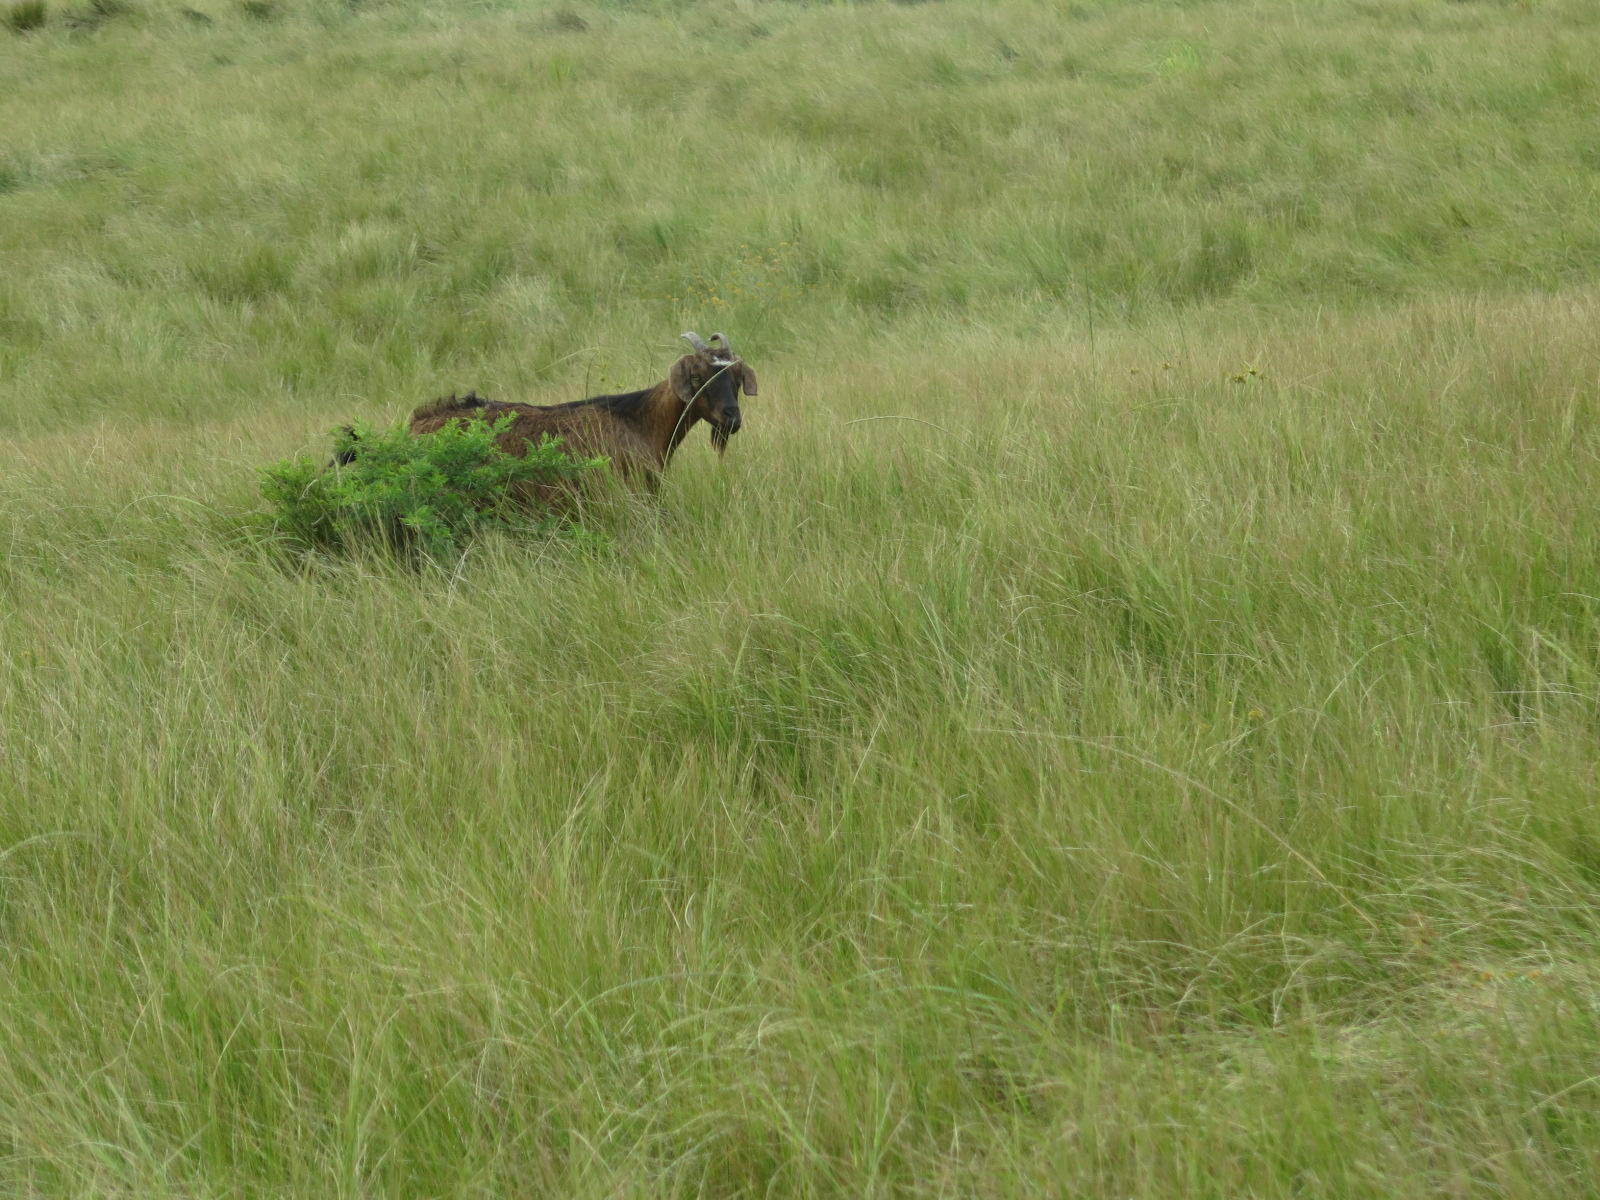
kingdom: Animalia
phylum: Chordata
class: Mammalia
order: Artiodactyla
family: Bovidae
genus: Capra
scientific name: Capra hircus
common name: Domestic goat
